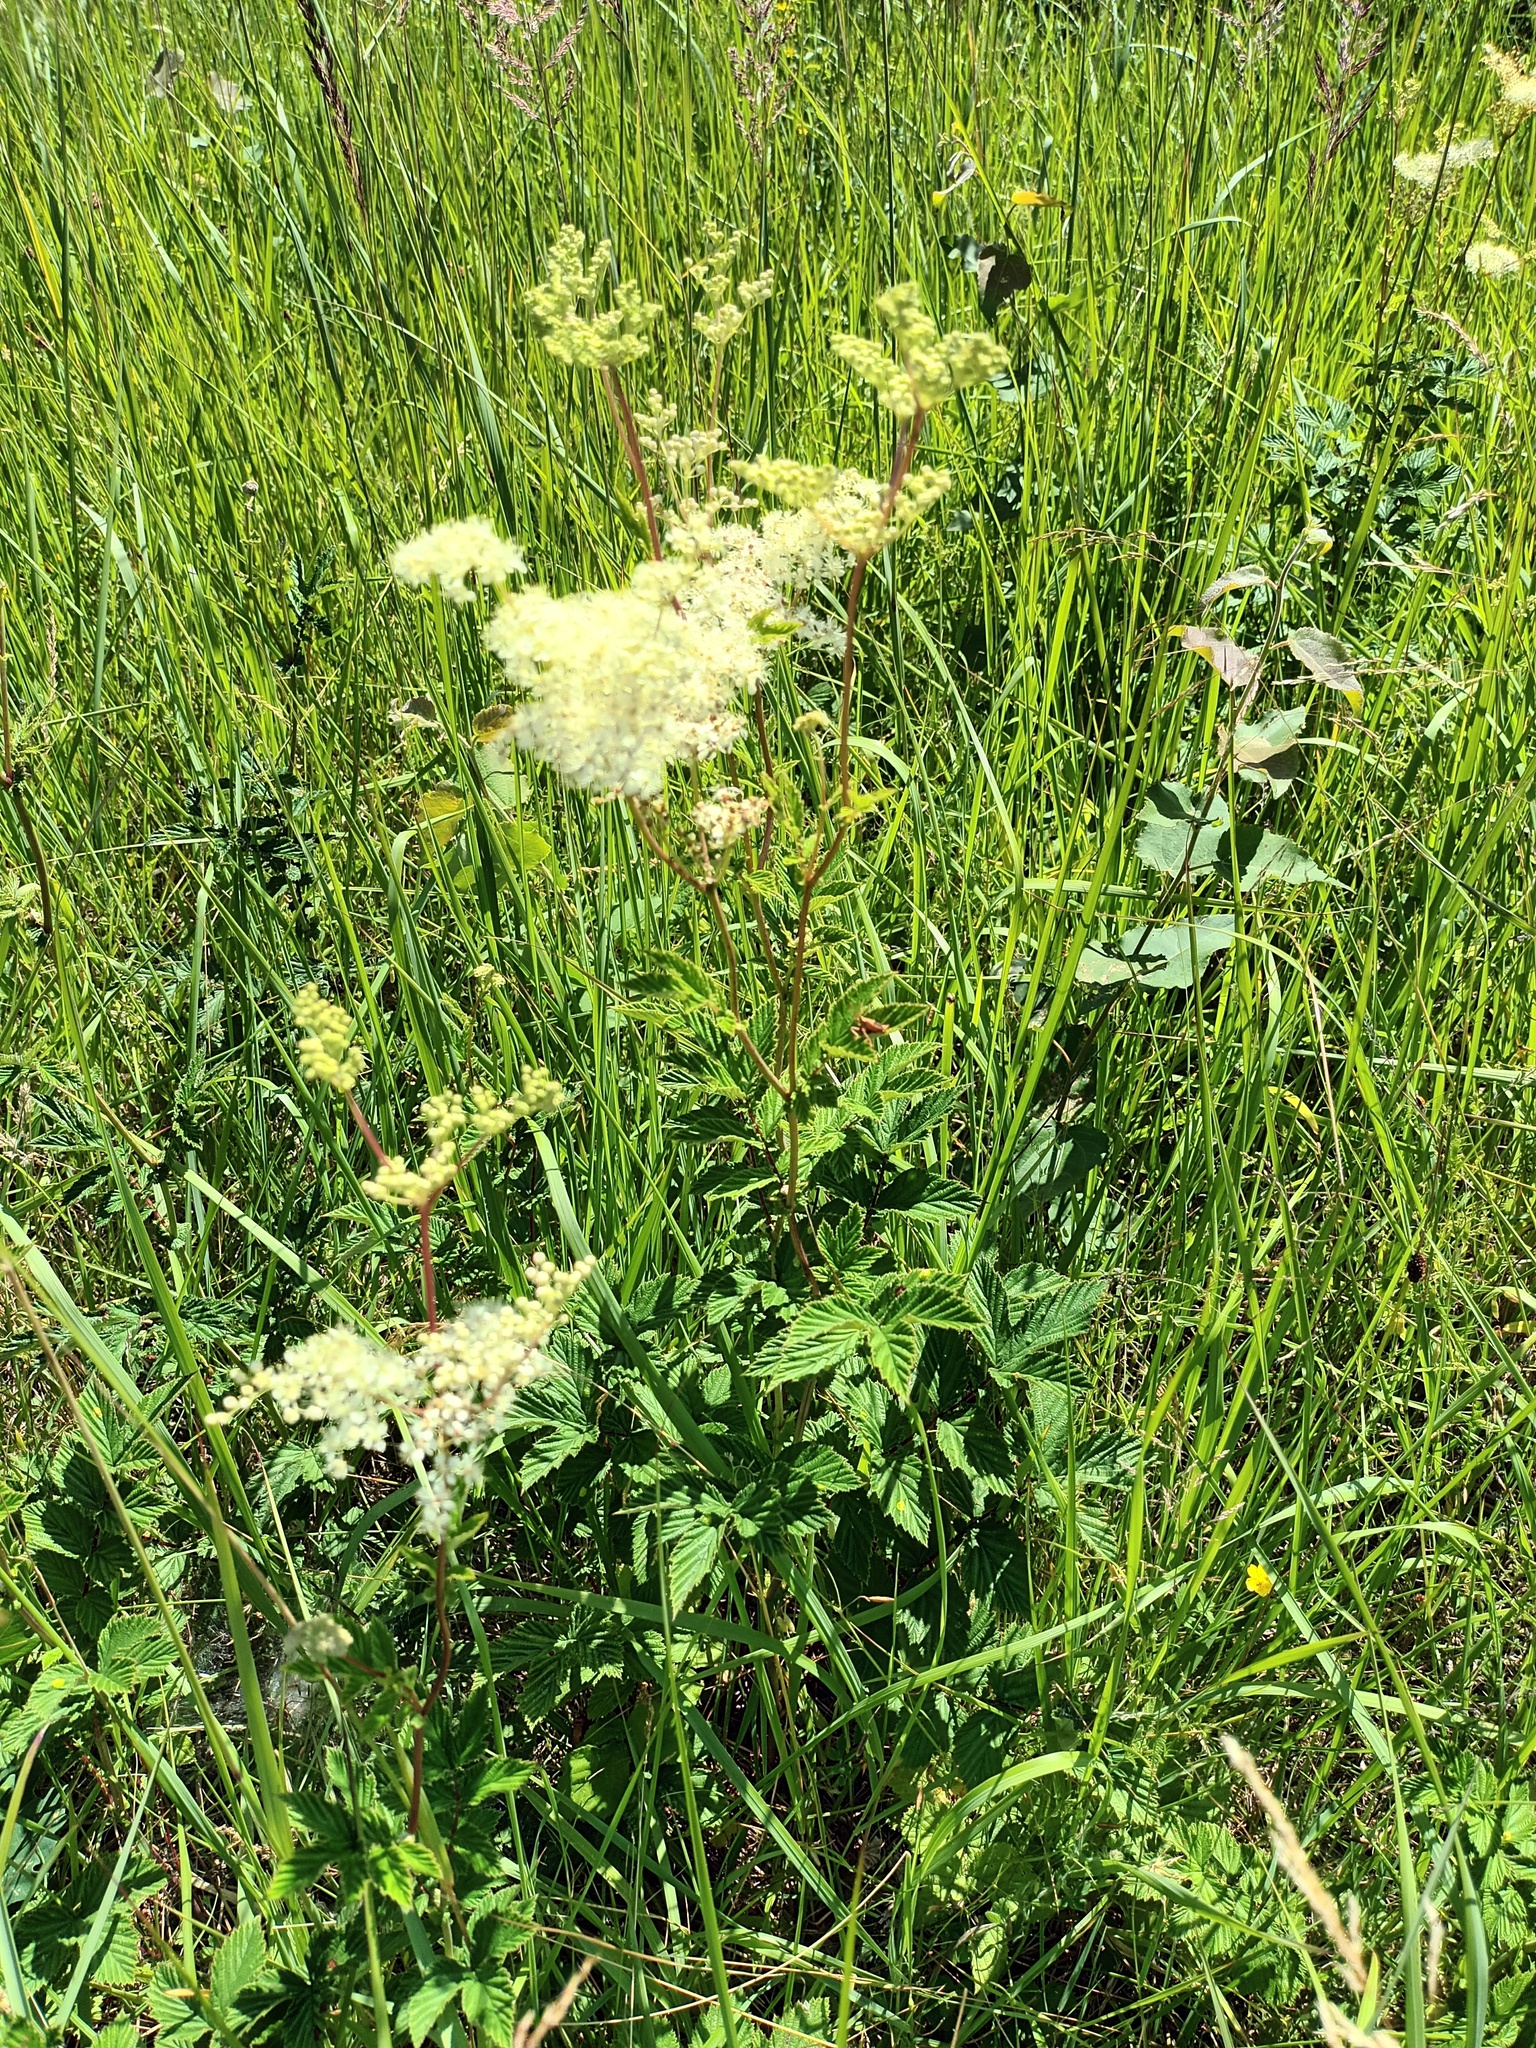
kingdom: Plantae
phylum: Tracheophyta
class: Magnoliopsida
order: Rosales
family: Rosaceae
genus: Filipendula
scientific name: Filipendula ulmaria
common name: Meadowsweet
